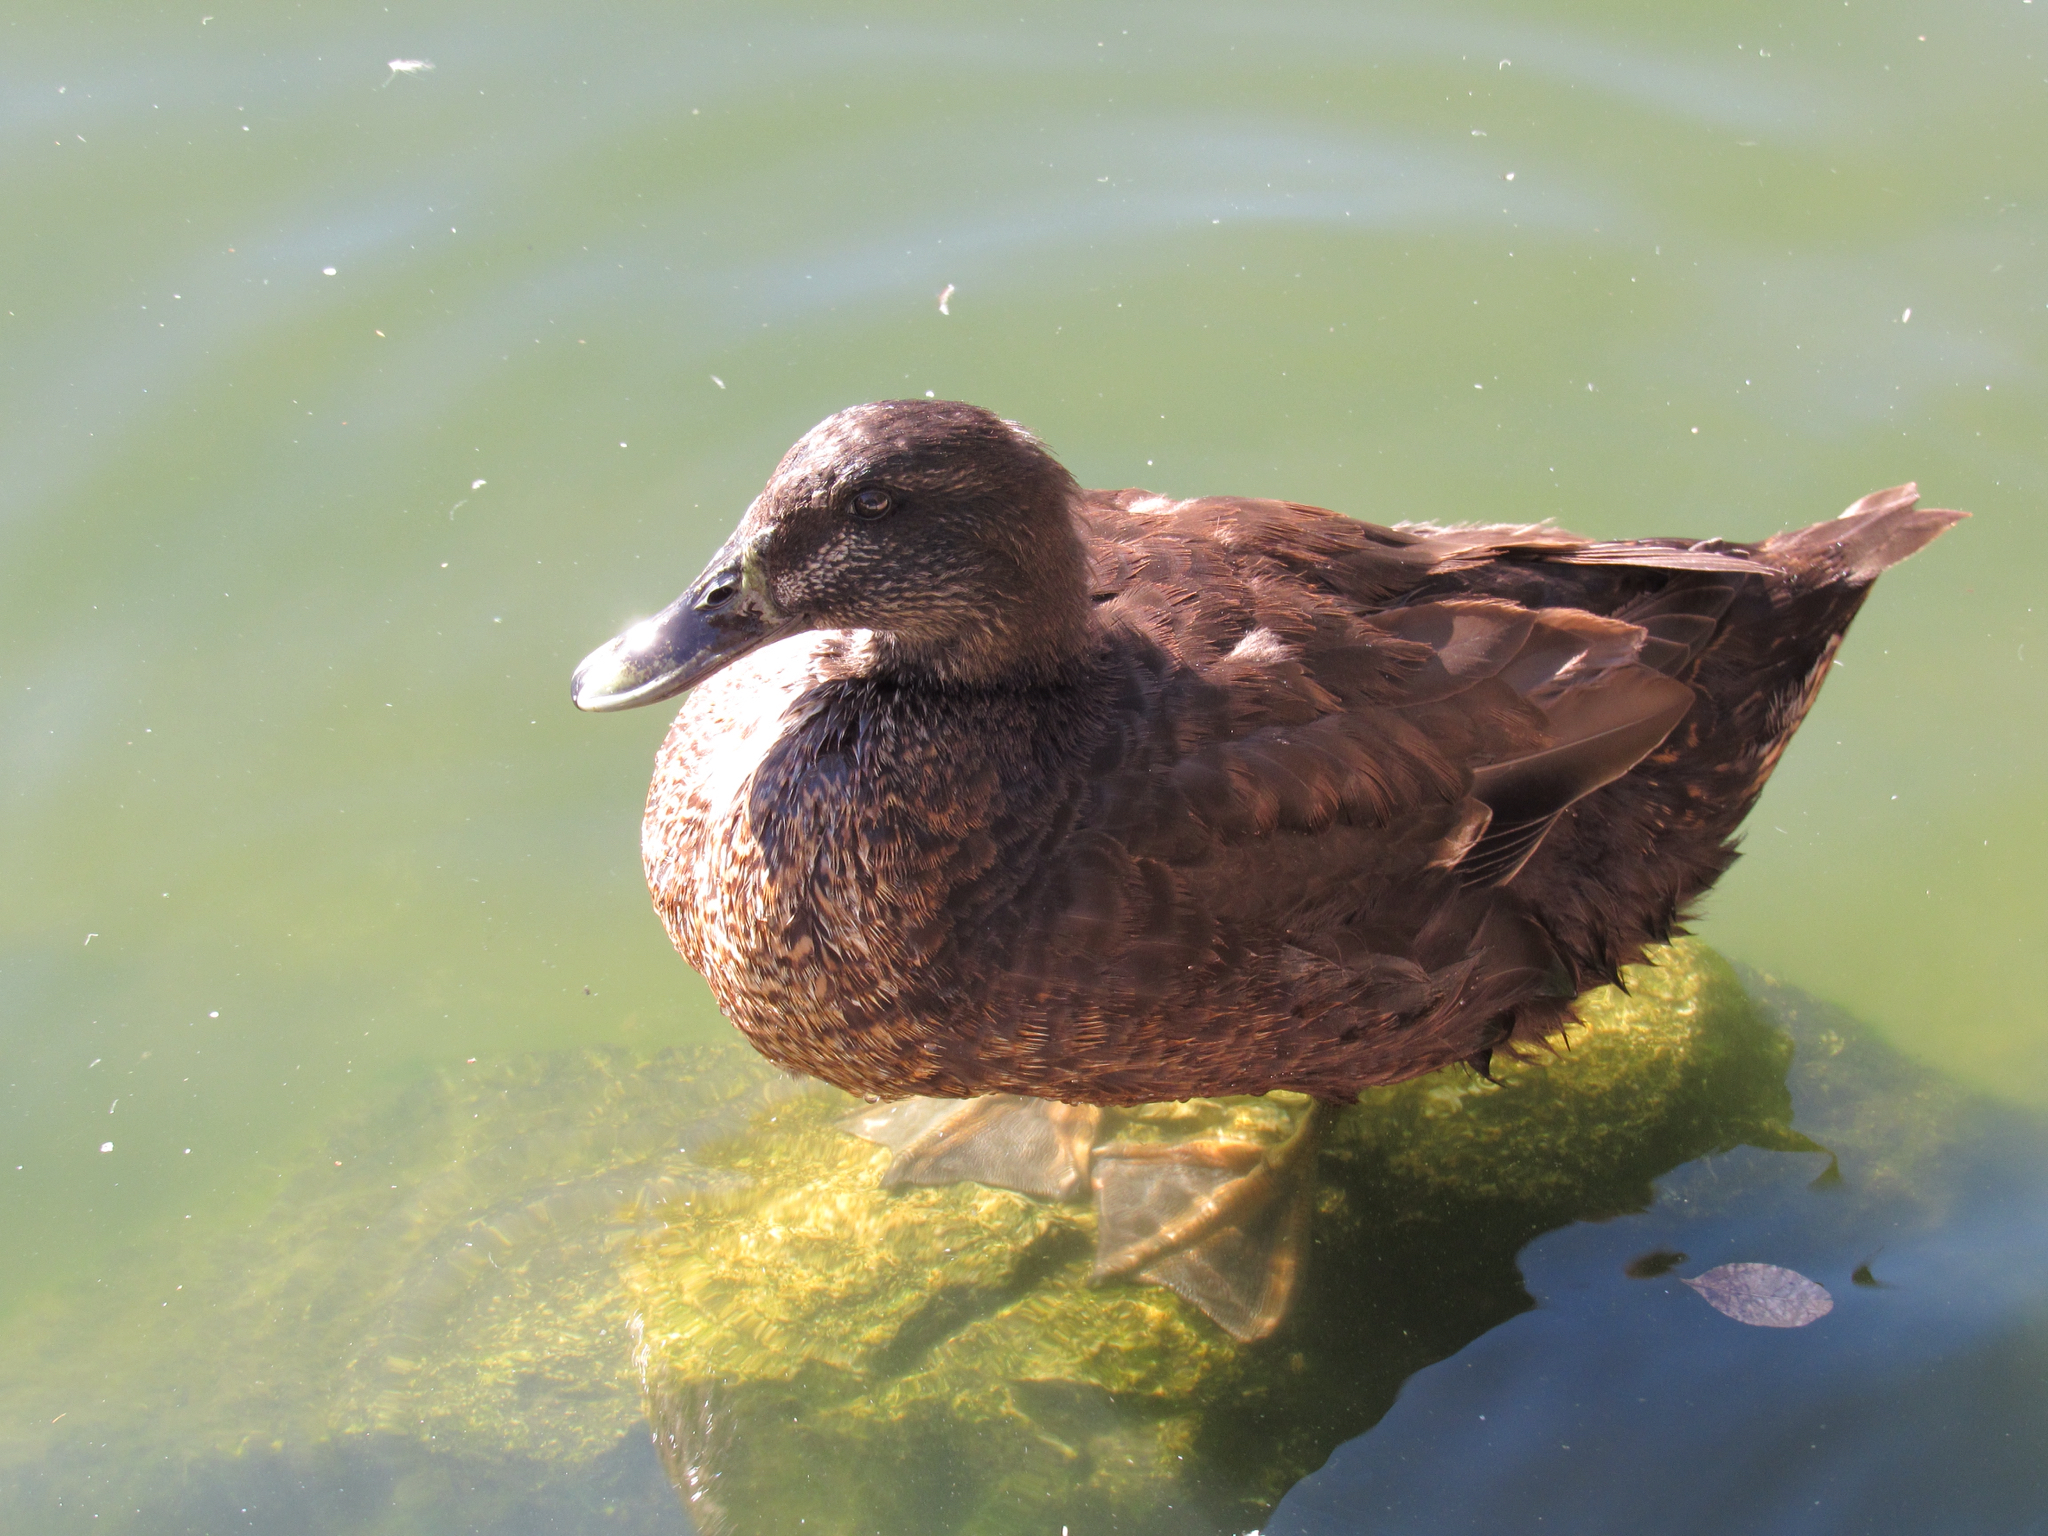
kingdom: Animalia
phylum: Chordata
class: Aves
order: Anseriformes
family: Anatidae
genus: Anas
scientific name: Anas platyrhynchos
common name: Mallard
